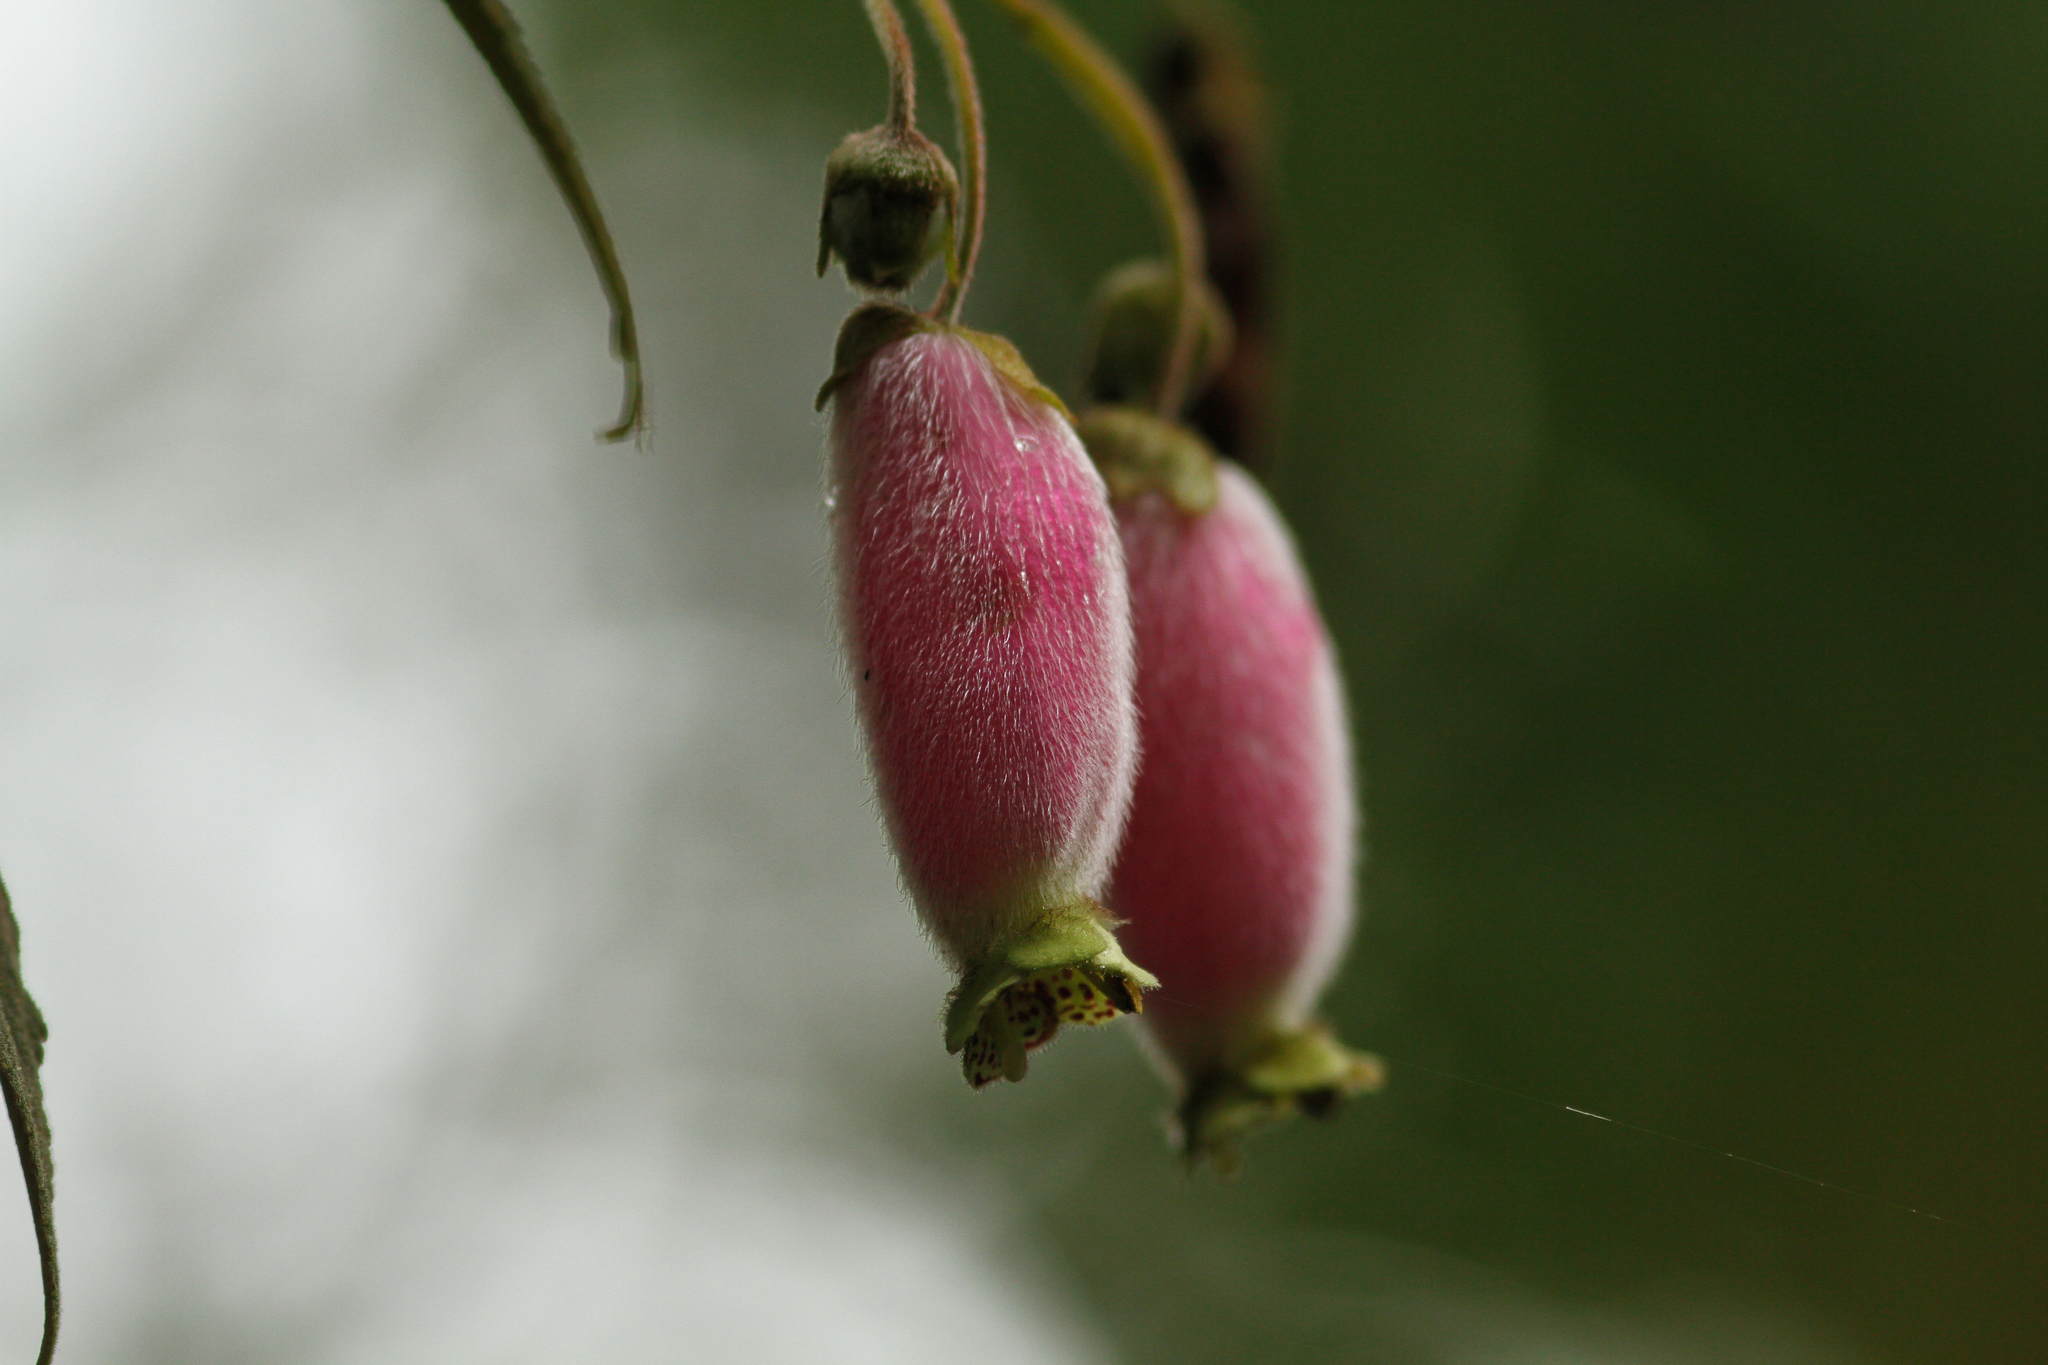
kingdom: Plantae
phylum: Tracheophyta
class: Magnoliopsida
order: Lamiales
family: Gesneriaceae
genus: Kohleria
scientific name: Kohleria affinis
